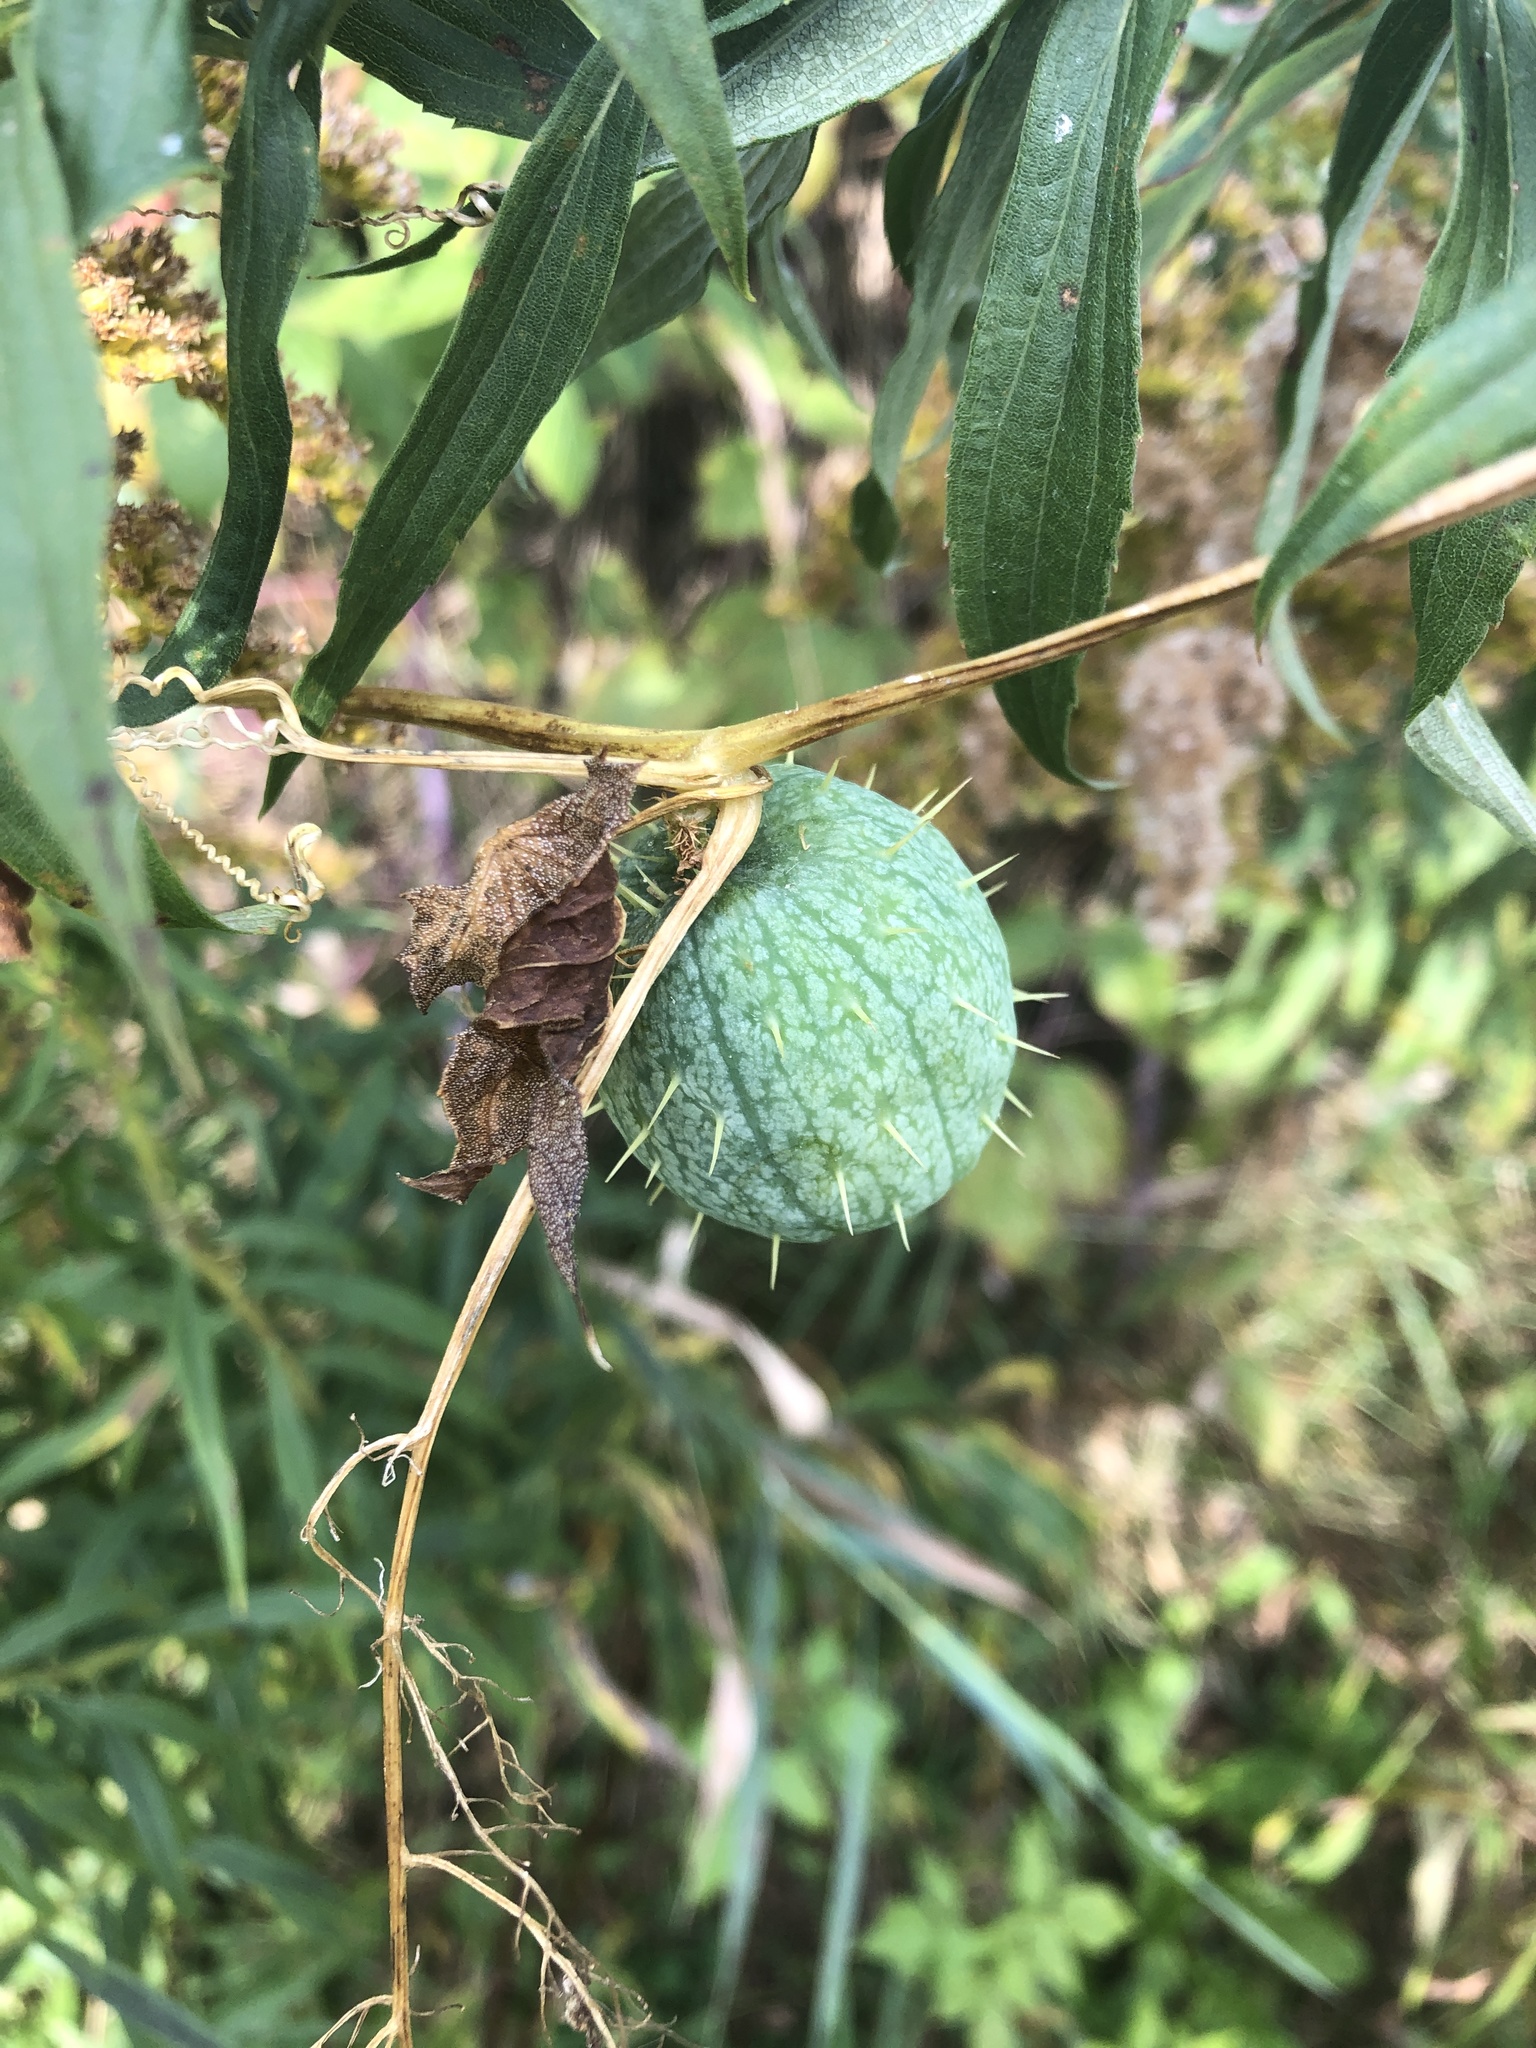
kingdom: Plantae
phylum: Tracheophyta
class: Magnoliopsida
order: Cucurbitales
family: Cucurbitaceae
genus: Echinocystis
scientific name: Echinocystis lobata
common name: Wild cucumber
